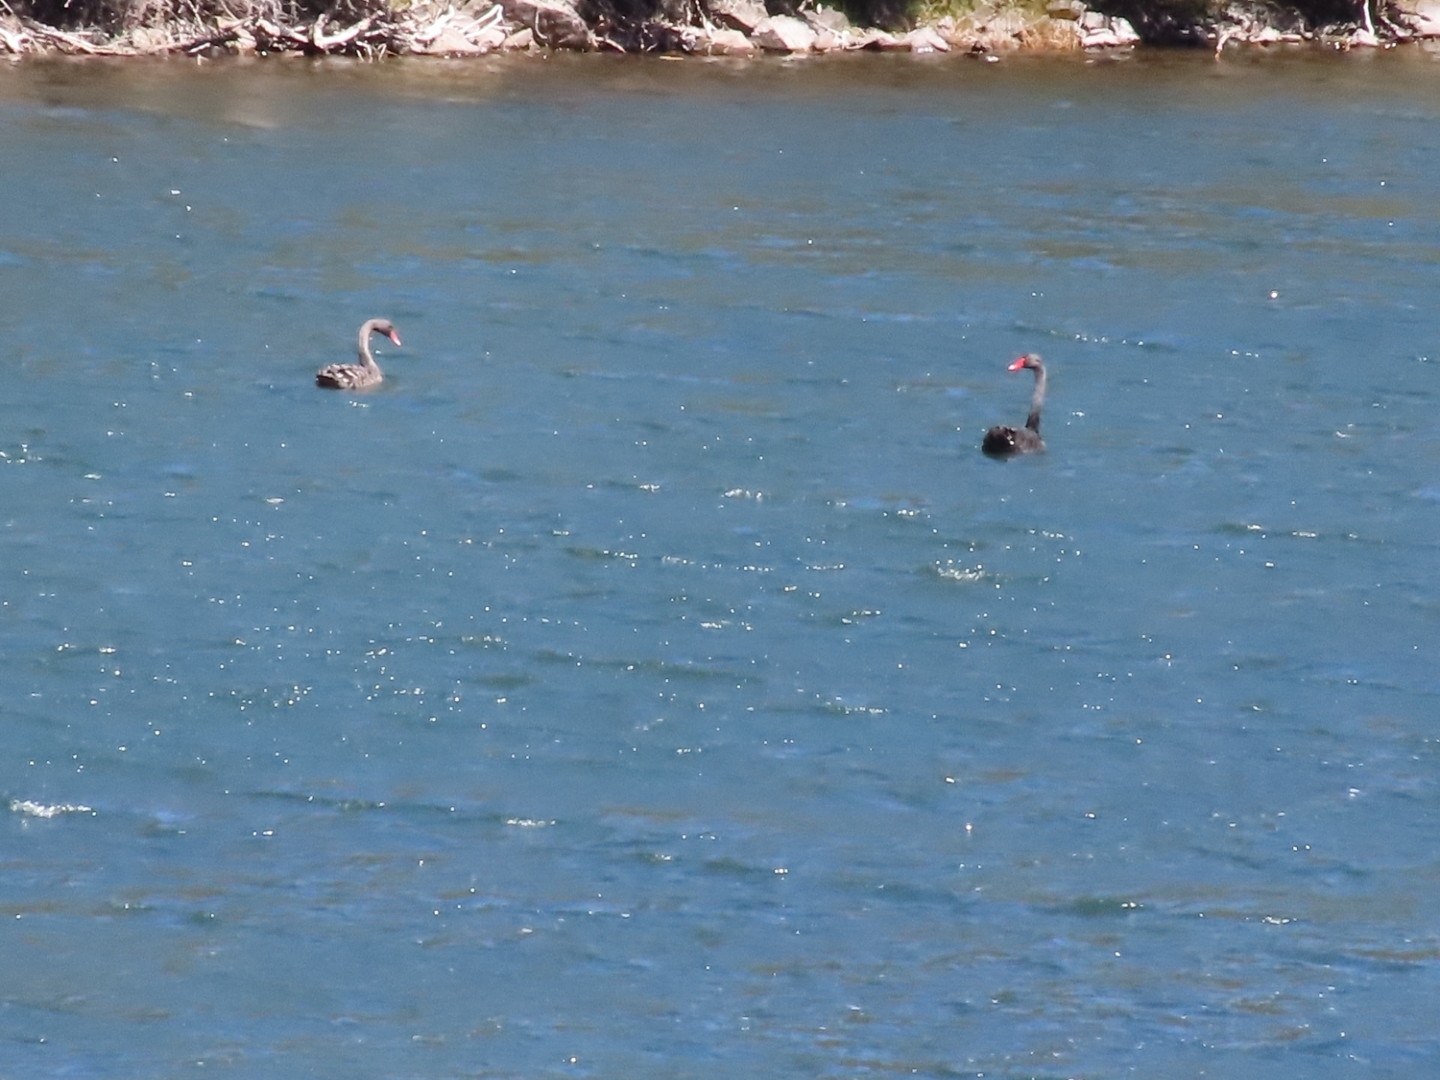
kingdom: Animalia
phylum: Chordata
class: Aves
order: Anseriformes
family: Anatidae
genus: Cygnus
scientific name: Cygnus atratus
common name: Black swan
